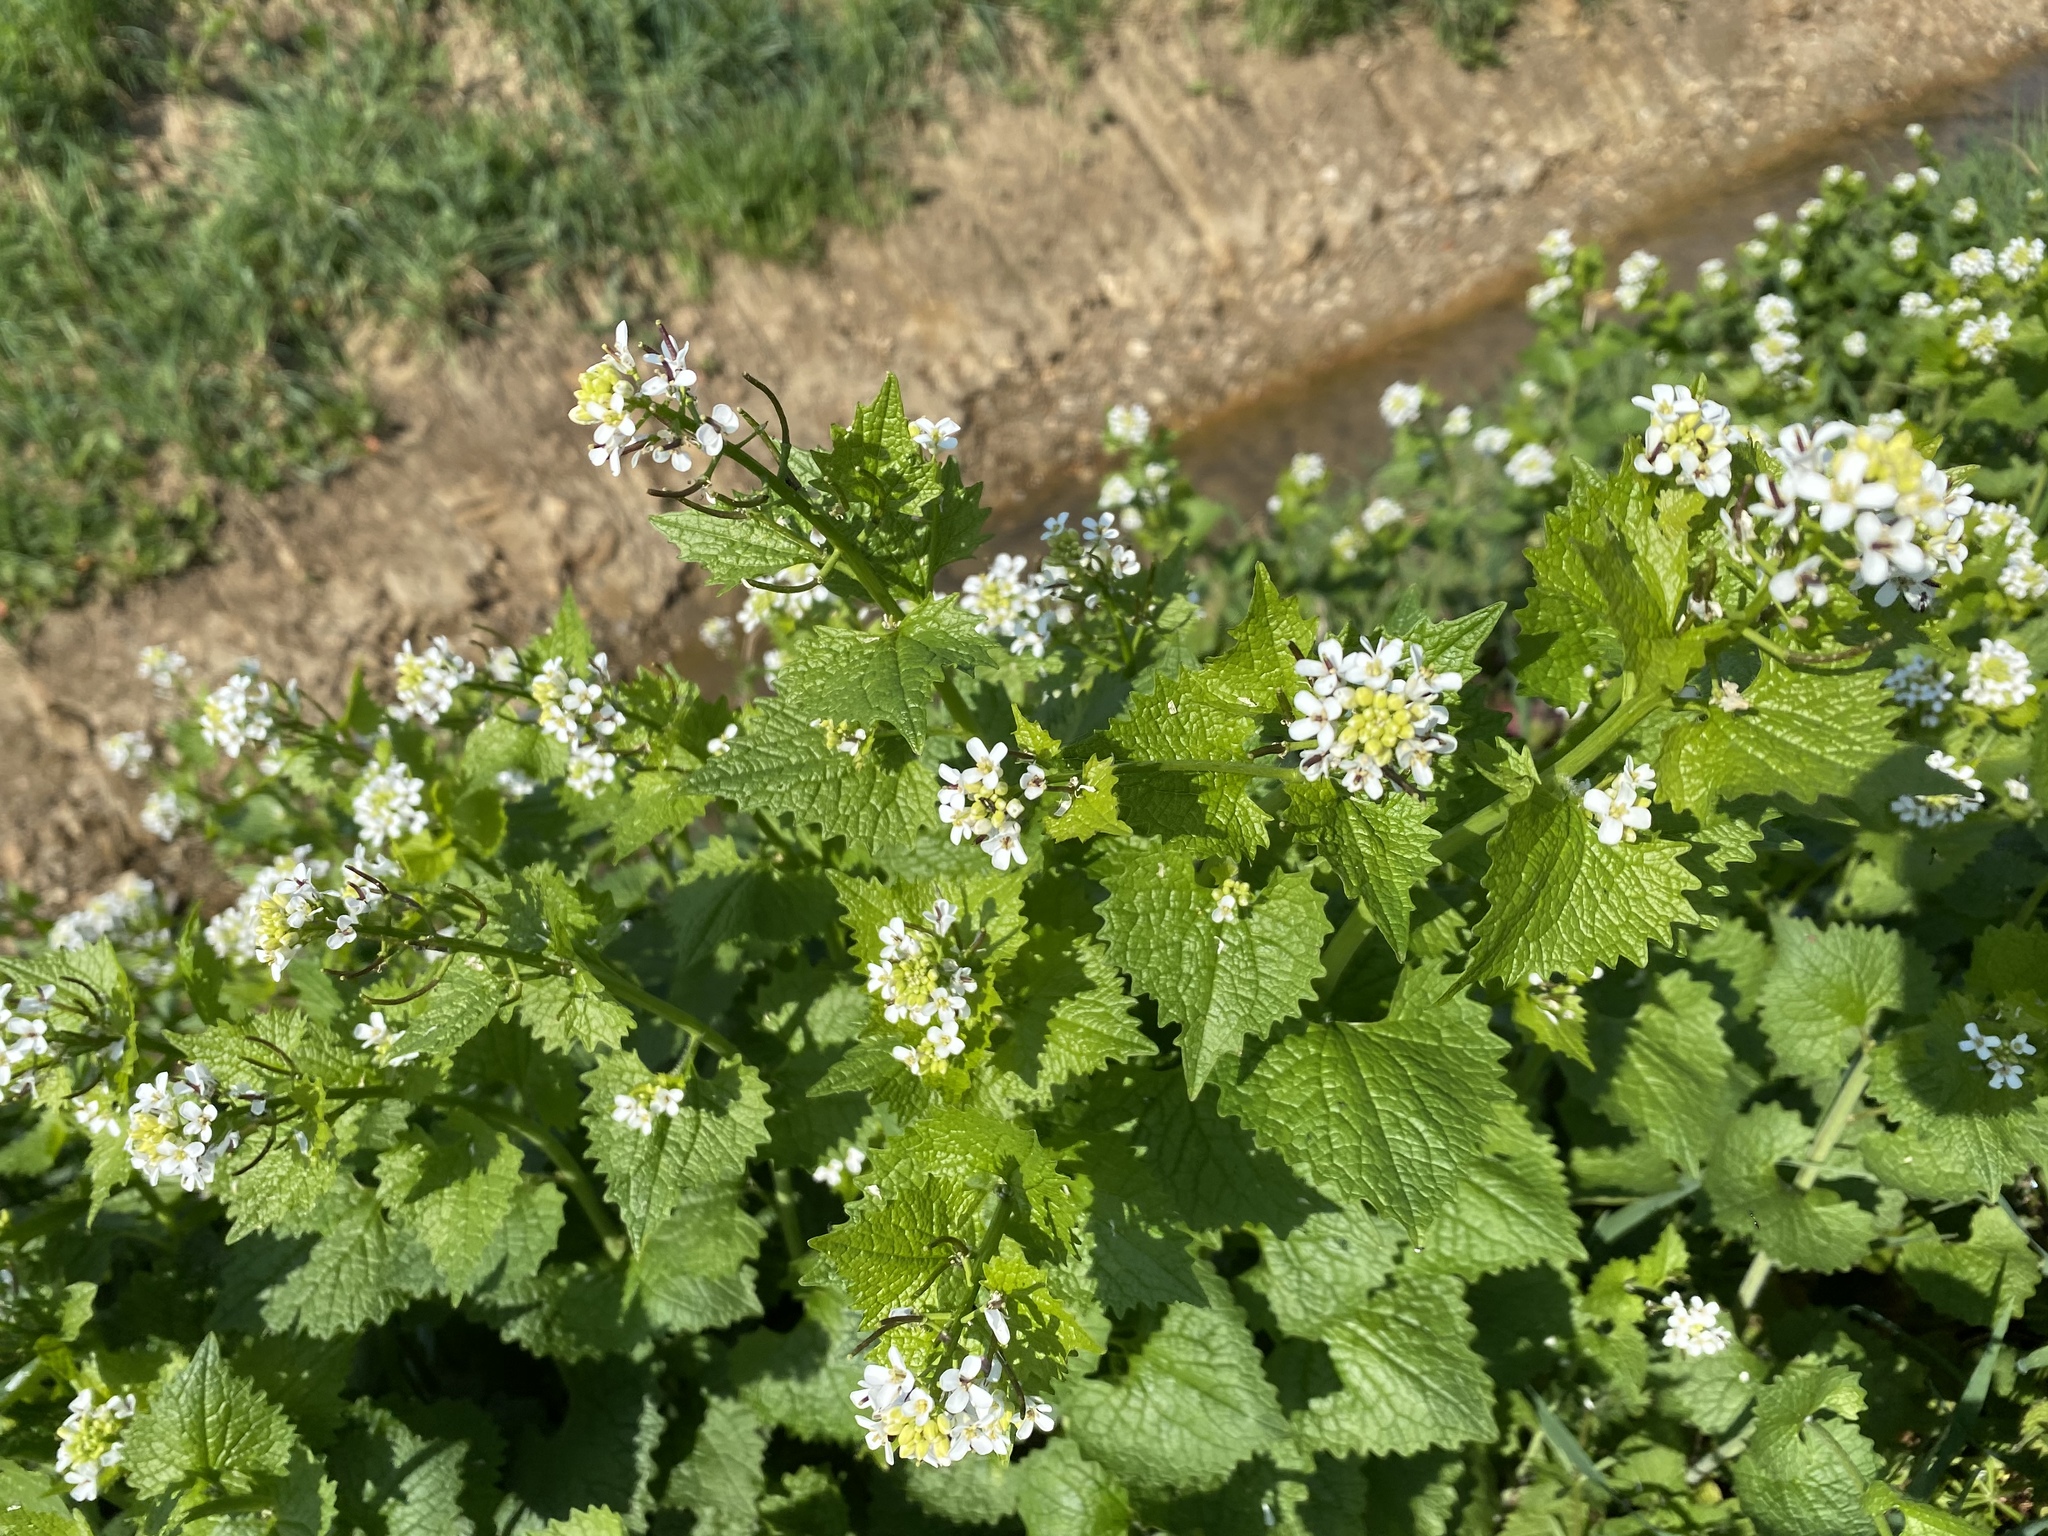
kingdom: Plantae
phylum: Tracheophyta
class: Magnoliopsida
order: Brassicales
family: Brassicaceae
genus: Alliaria
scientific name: Alliaria petiolata
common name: Garlic mustard
